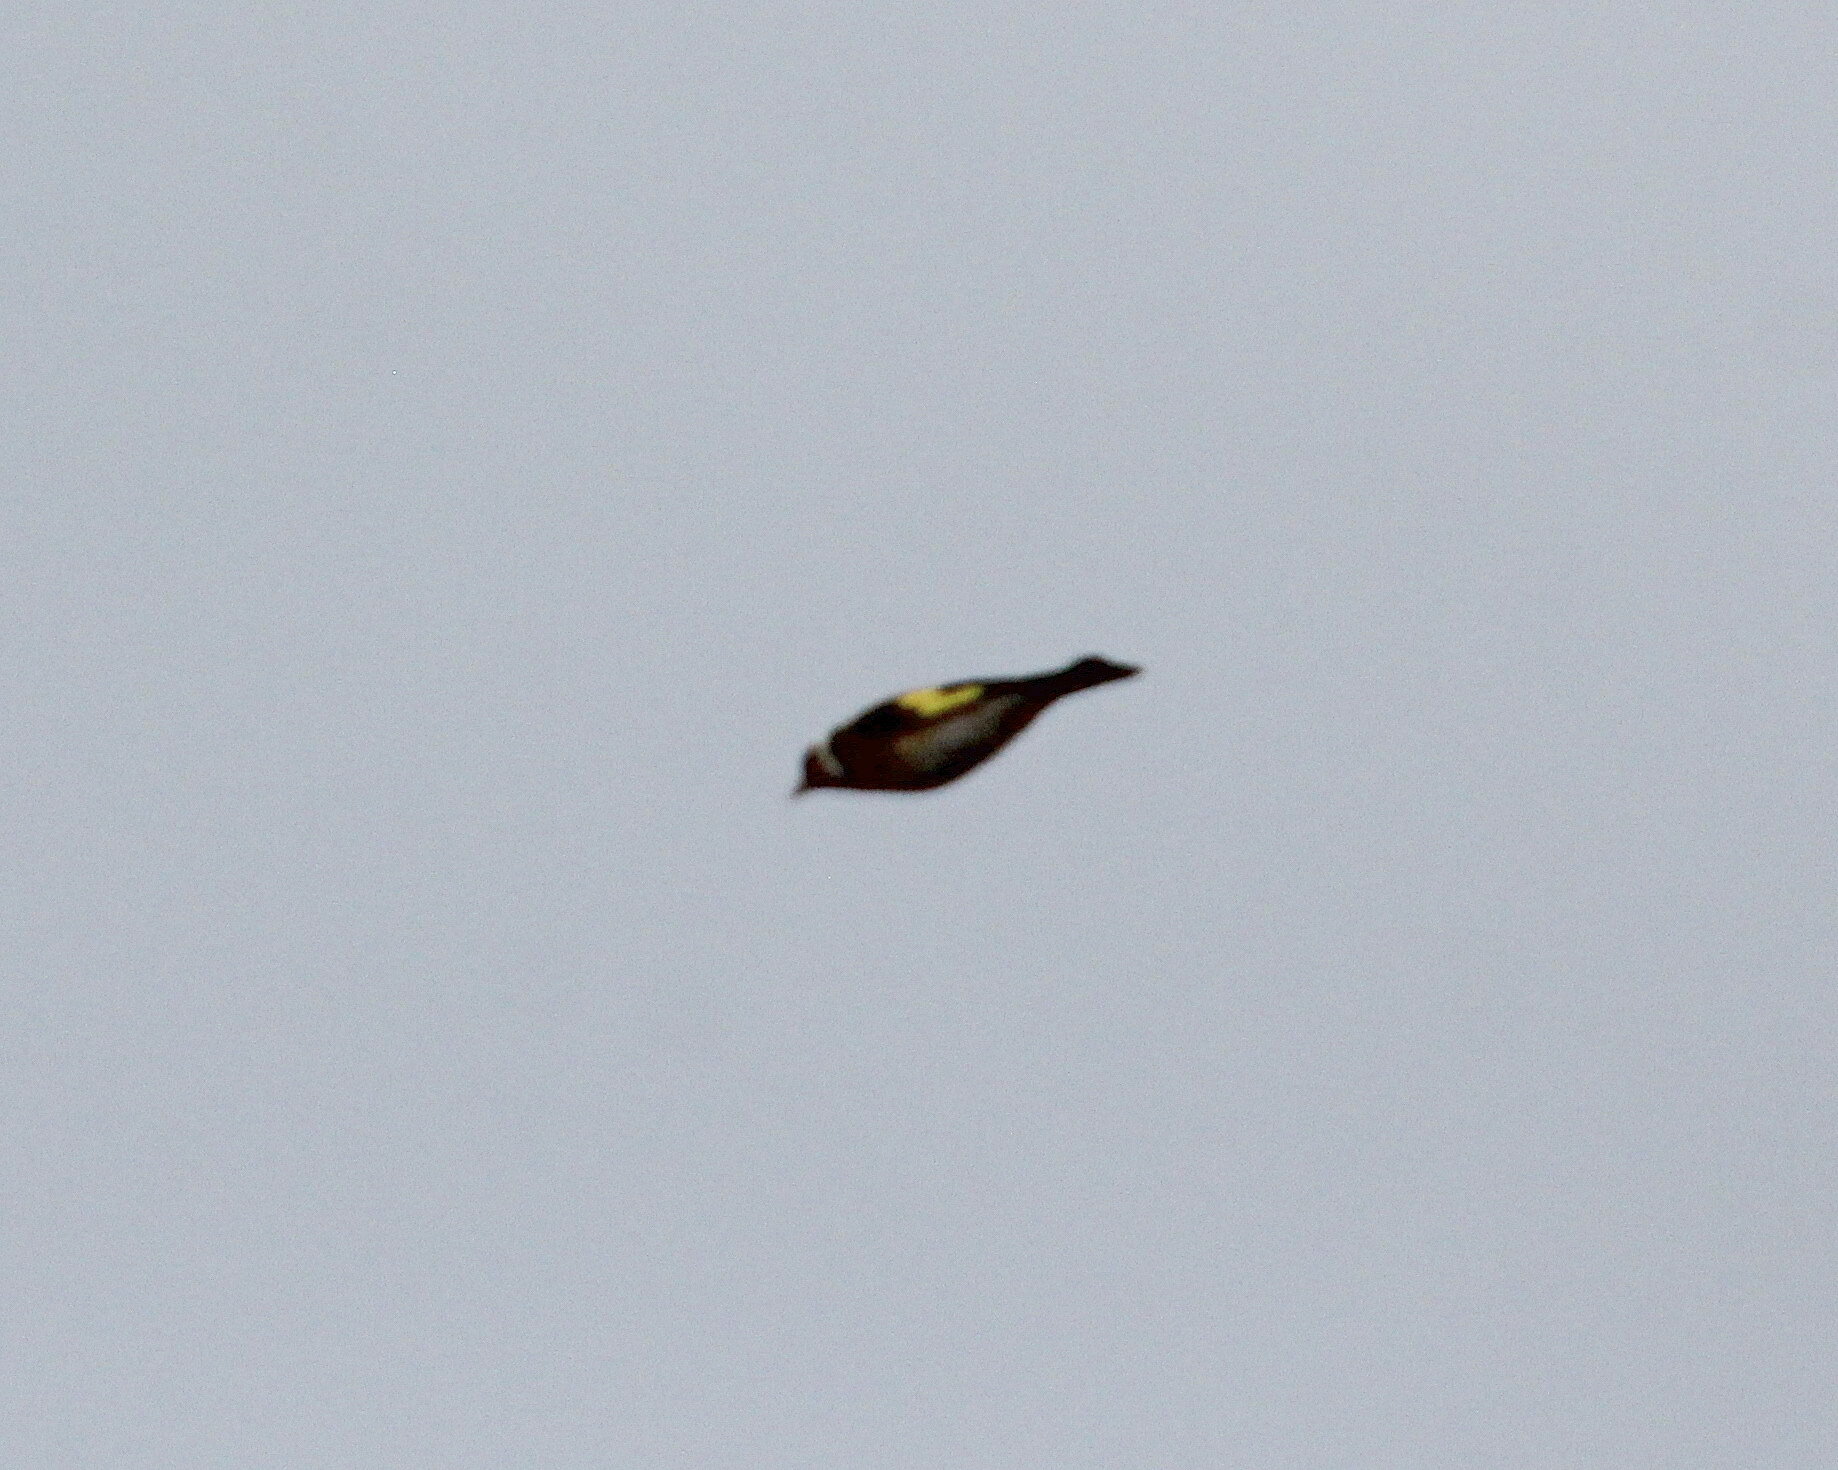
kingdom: Animalia
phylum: Chordata
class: Aves
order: Passeriformes
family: Fringillidae
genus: Carduelis
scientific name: Carduelis carduelis
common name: European goldfinch
